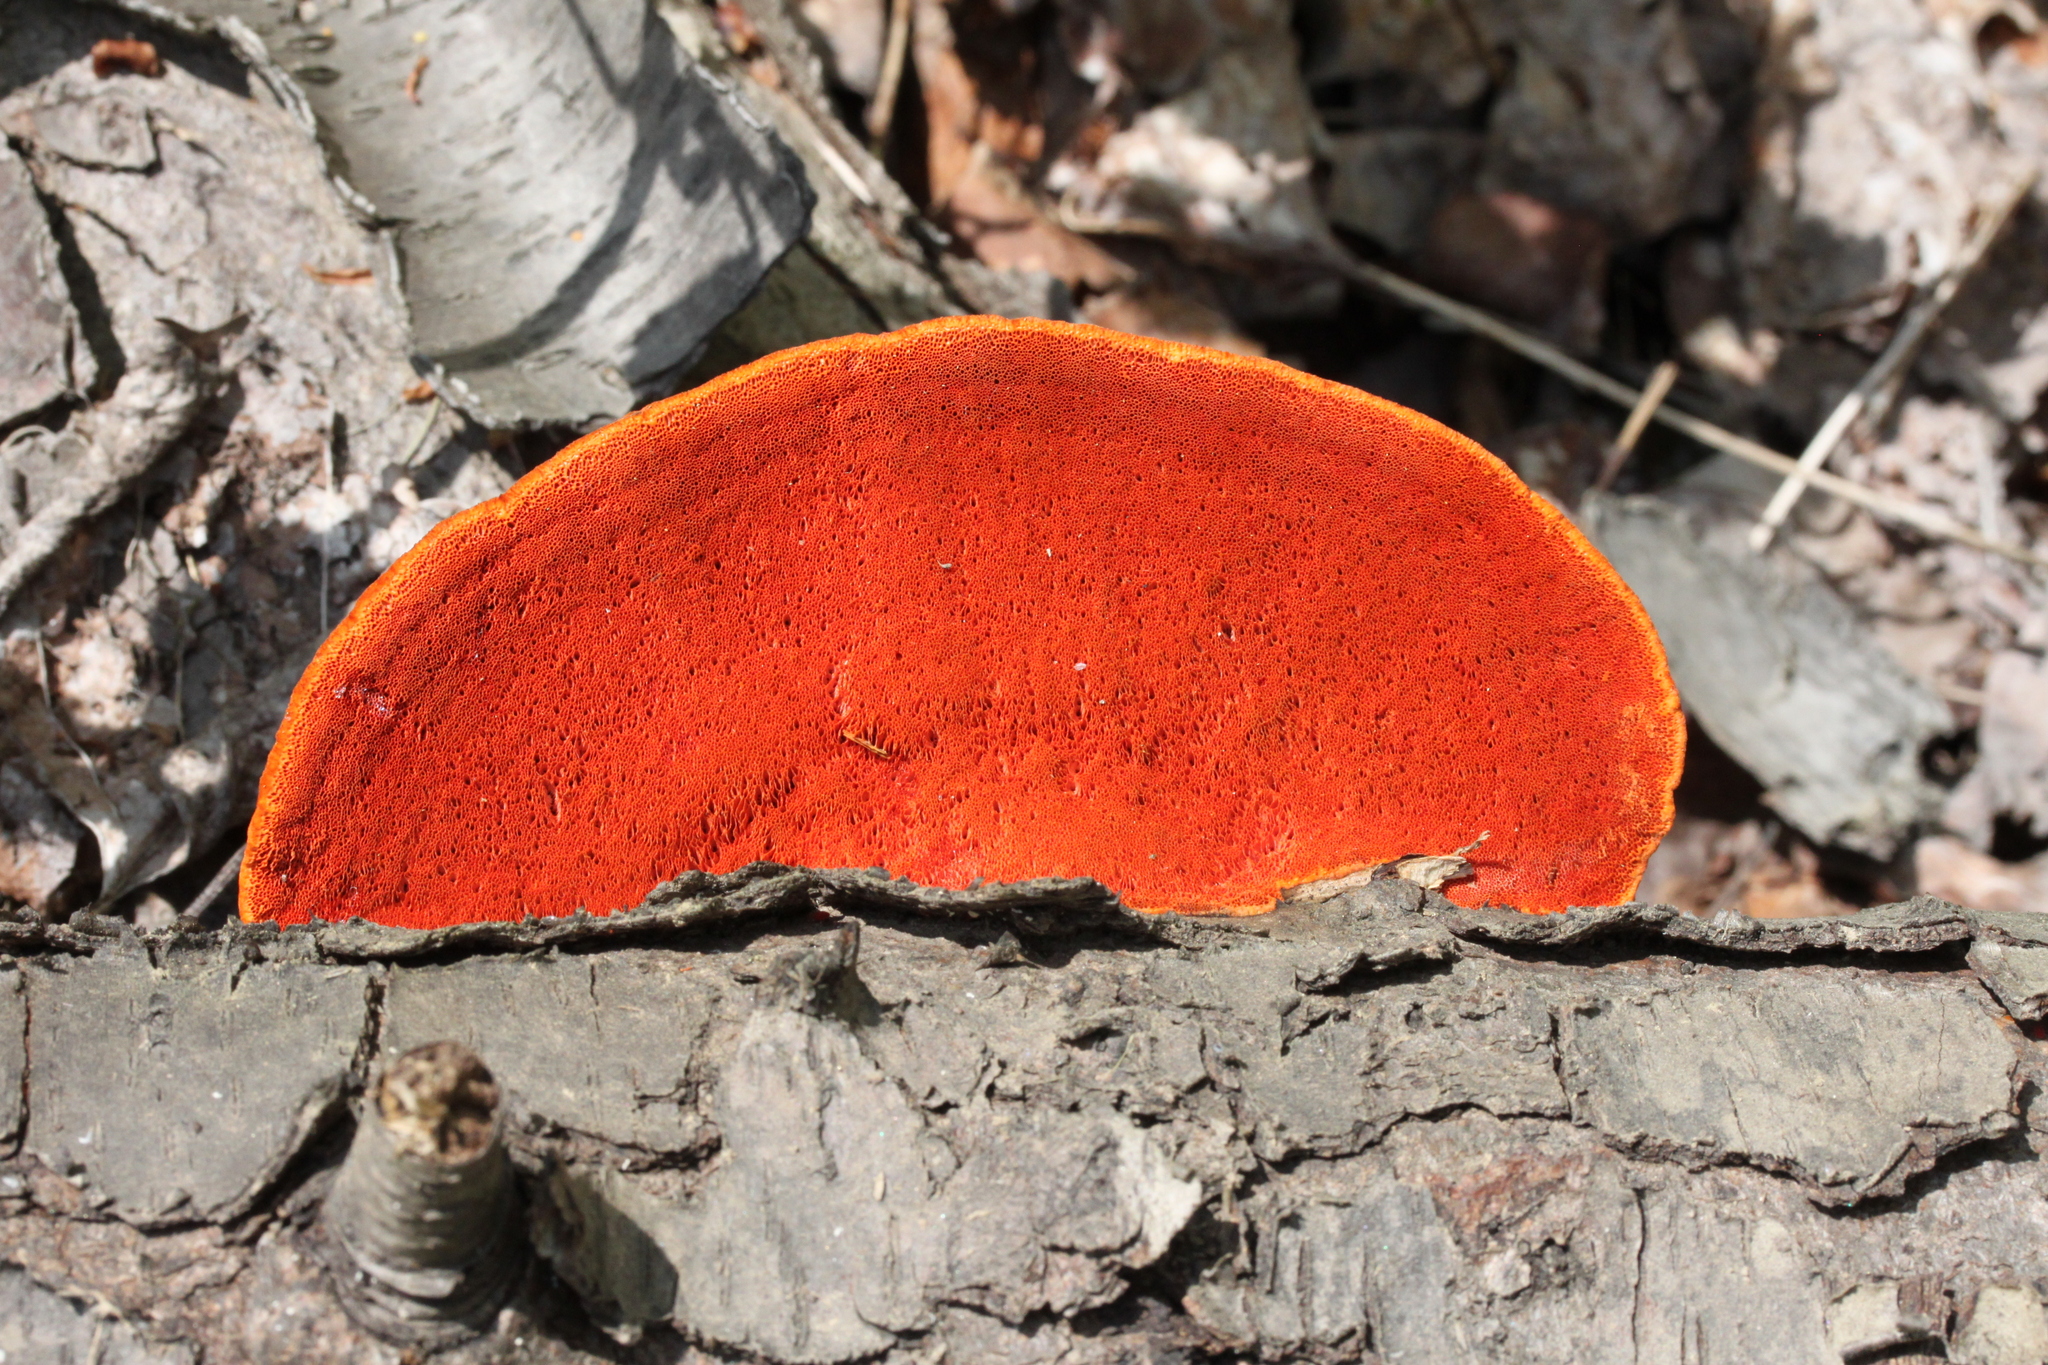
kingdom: Fungi
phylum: Basidiomycota
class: Agaricomycetes
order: Polyporales
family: Polyporaceae
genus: Trametes
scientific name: Trametes cinnabarina
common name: Northern cinnabar polypore
